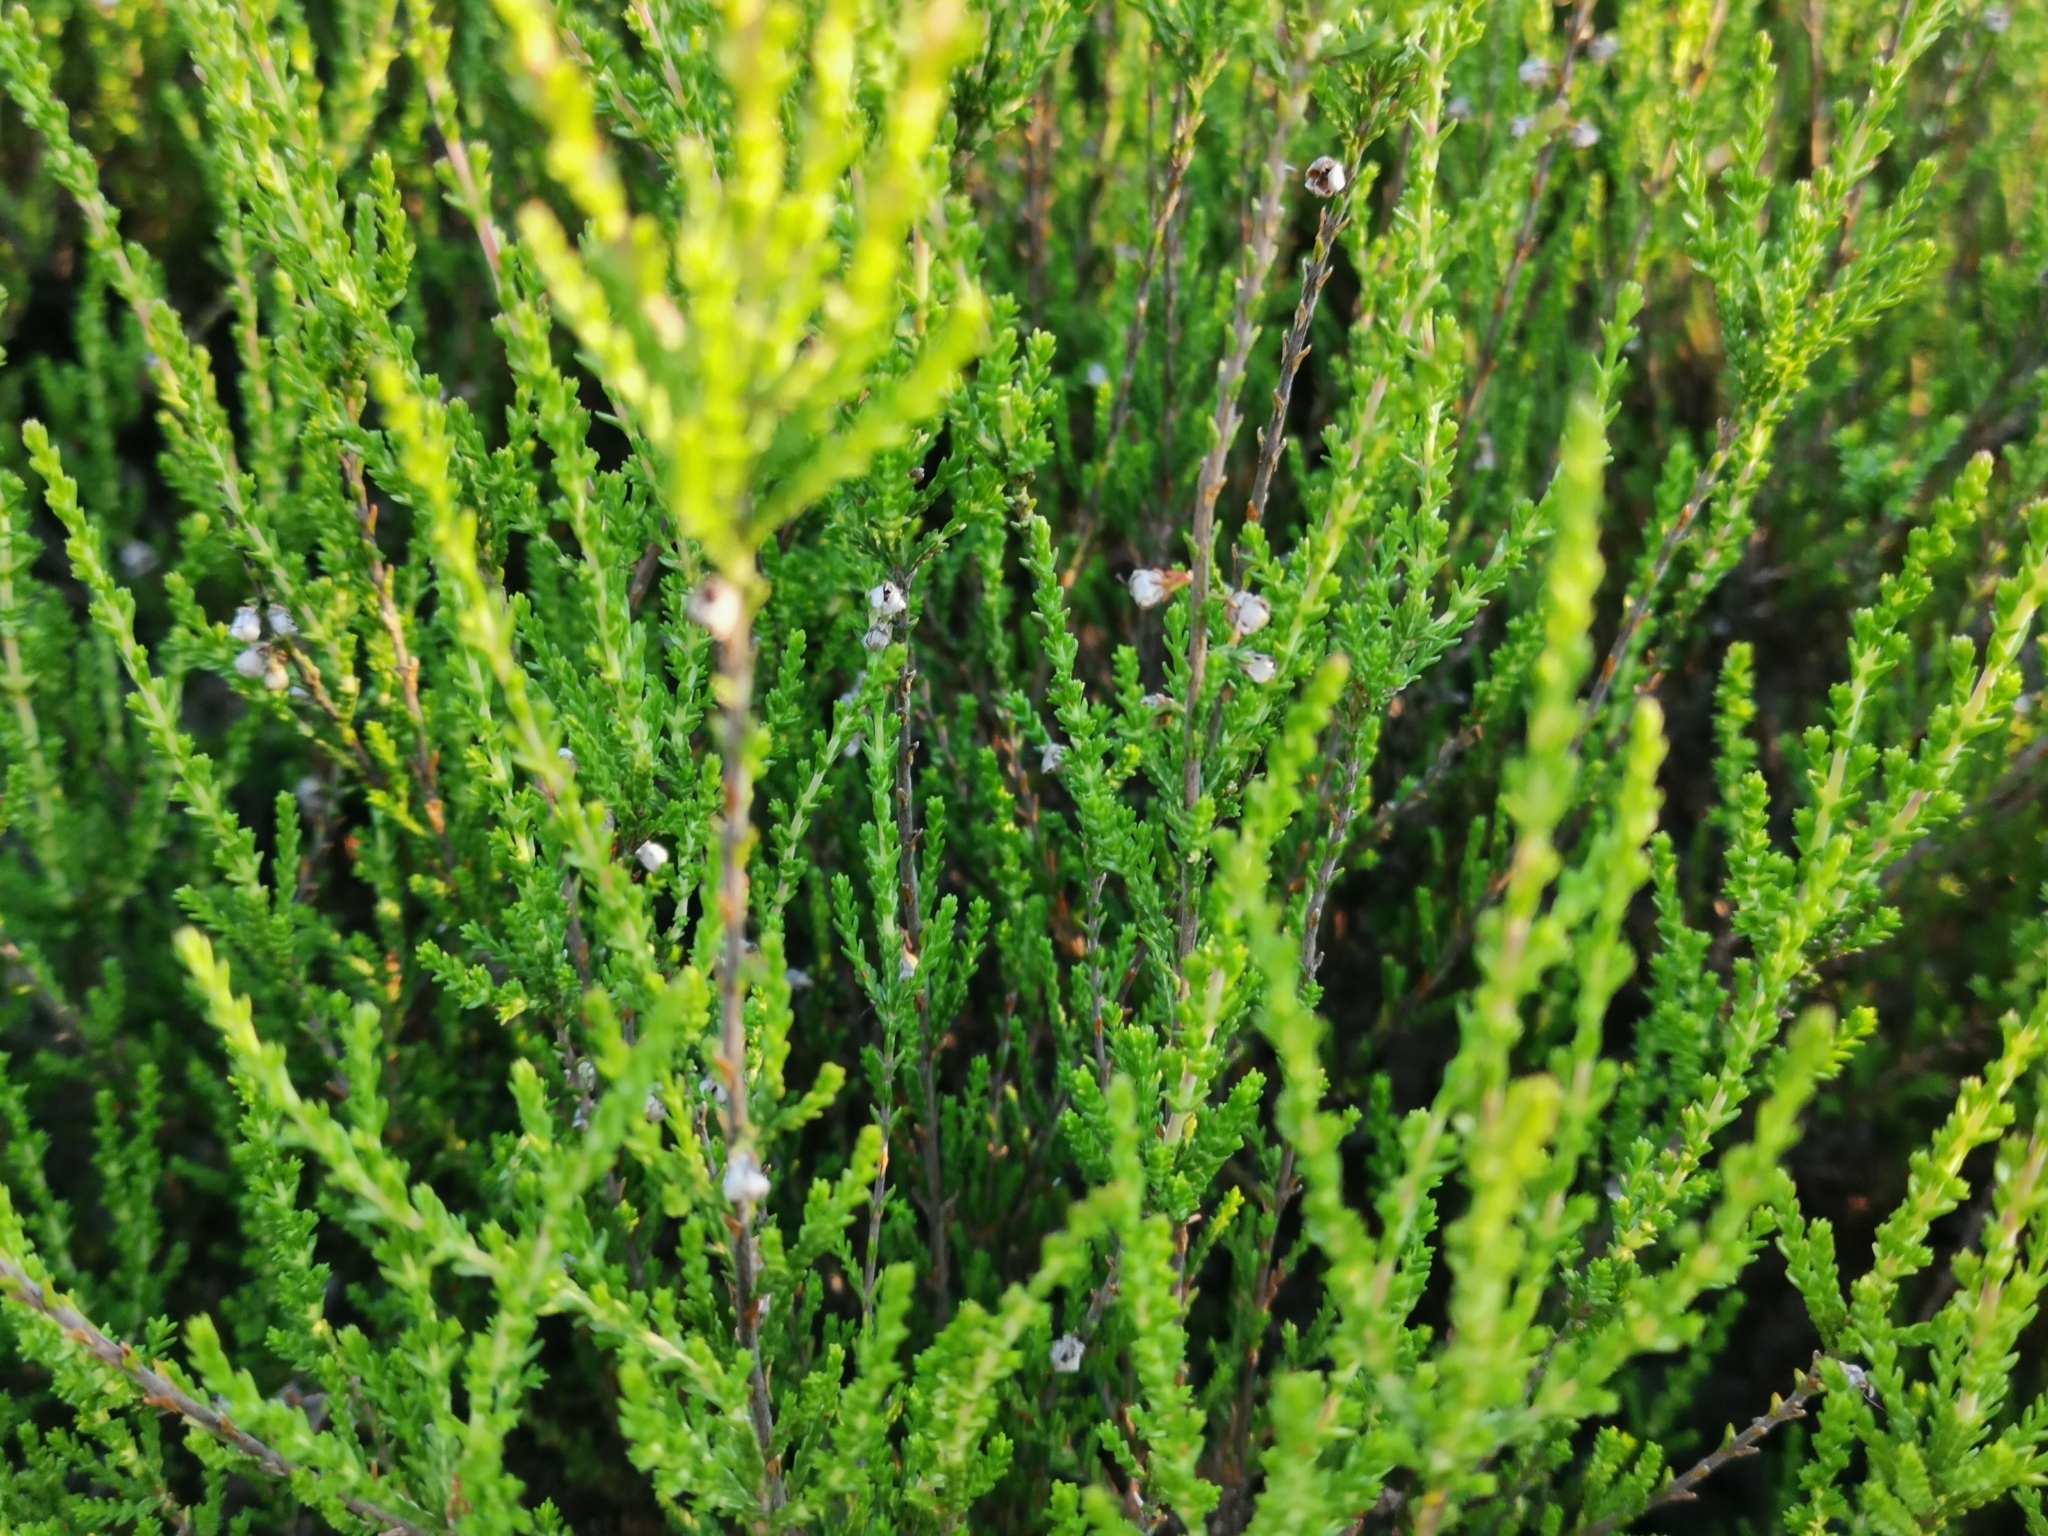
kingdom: Plantae
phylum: Tracheophyta
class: Magnoliopsida
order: Ericales
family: Ericaceae
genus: Calluna
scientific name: Calluna vulgaris
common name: Heather
